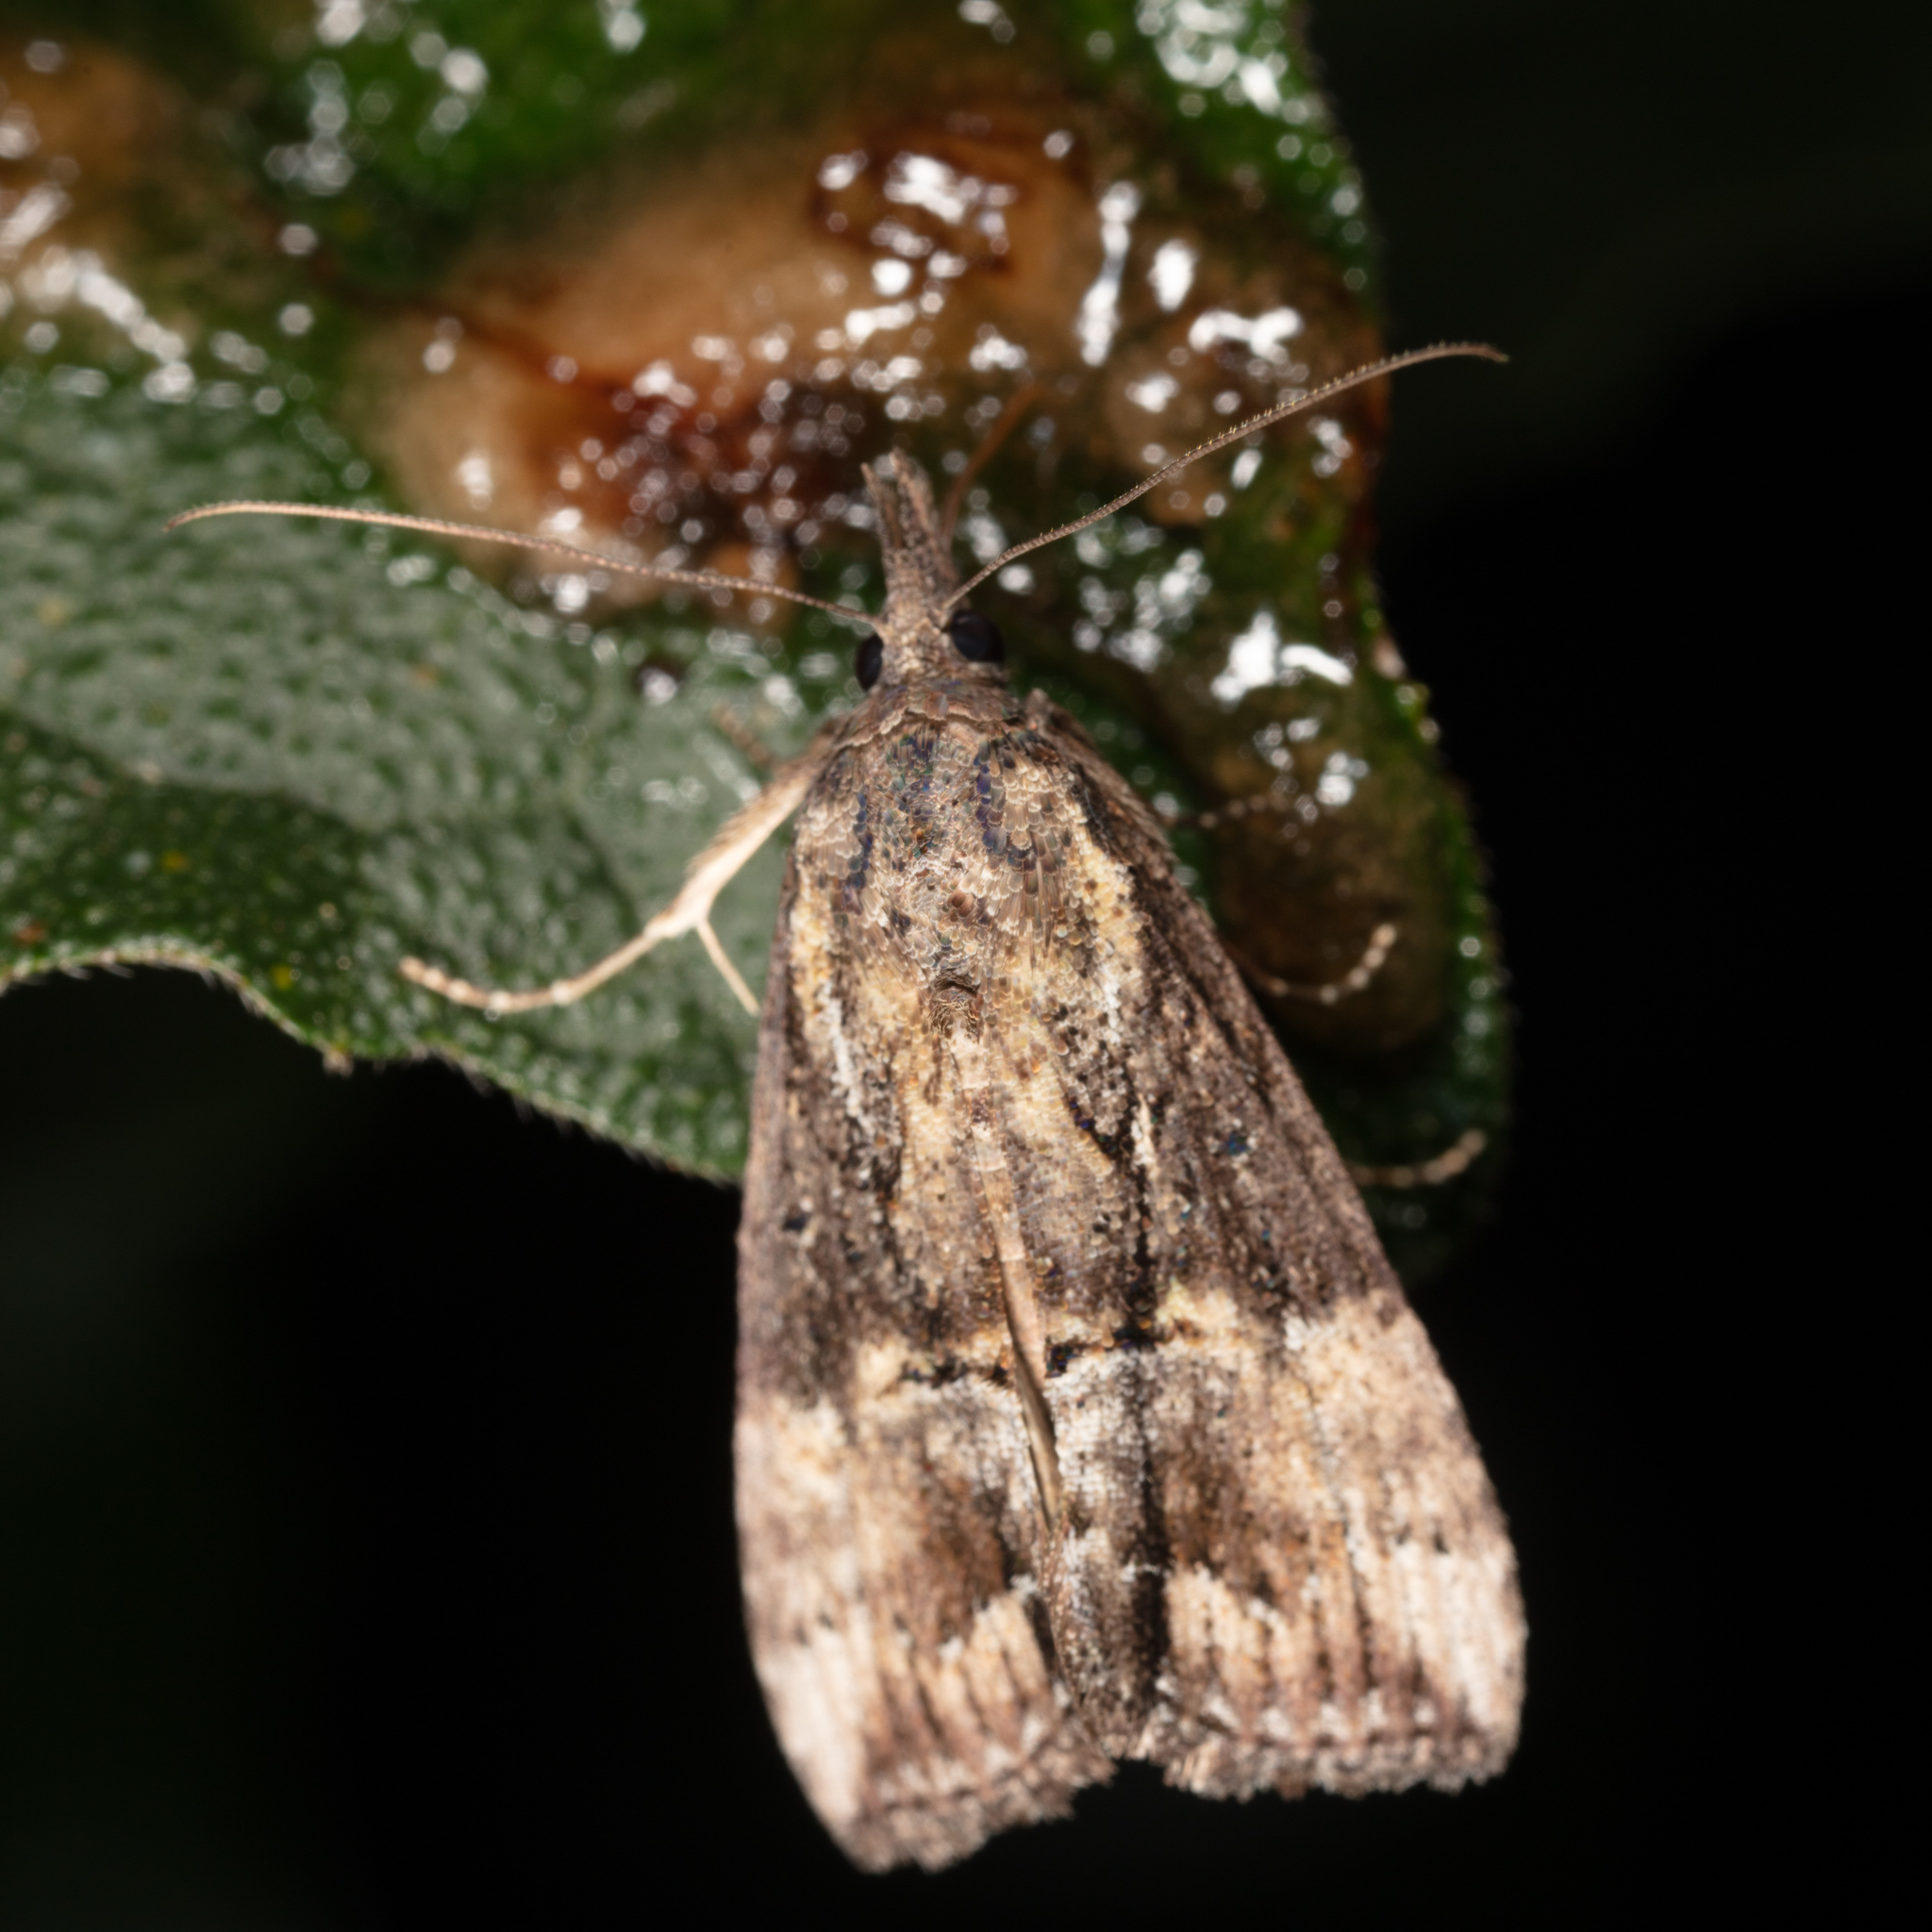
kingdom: Animalia
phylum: Arthropoda
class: Insecta
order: Lepidoptera
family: Erebidae
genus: Hypena
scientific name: Hypena scabra
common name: Green cloverworm
